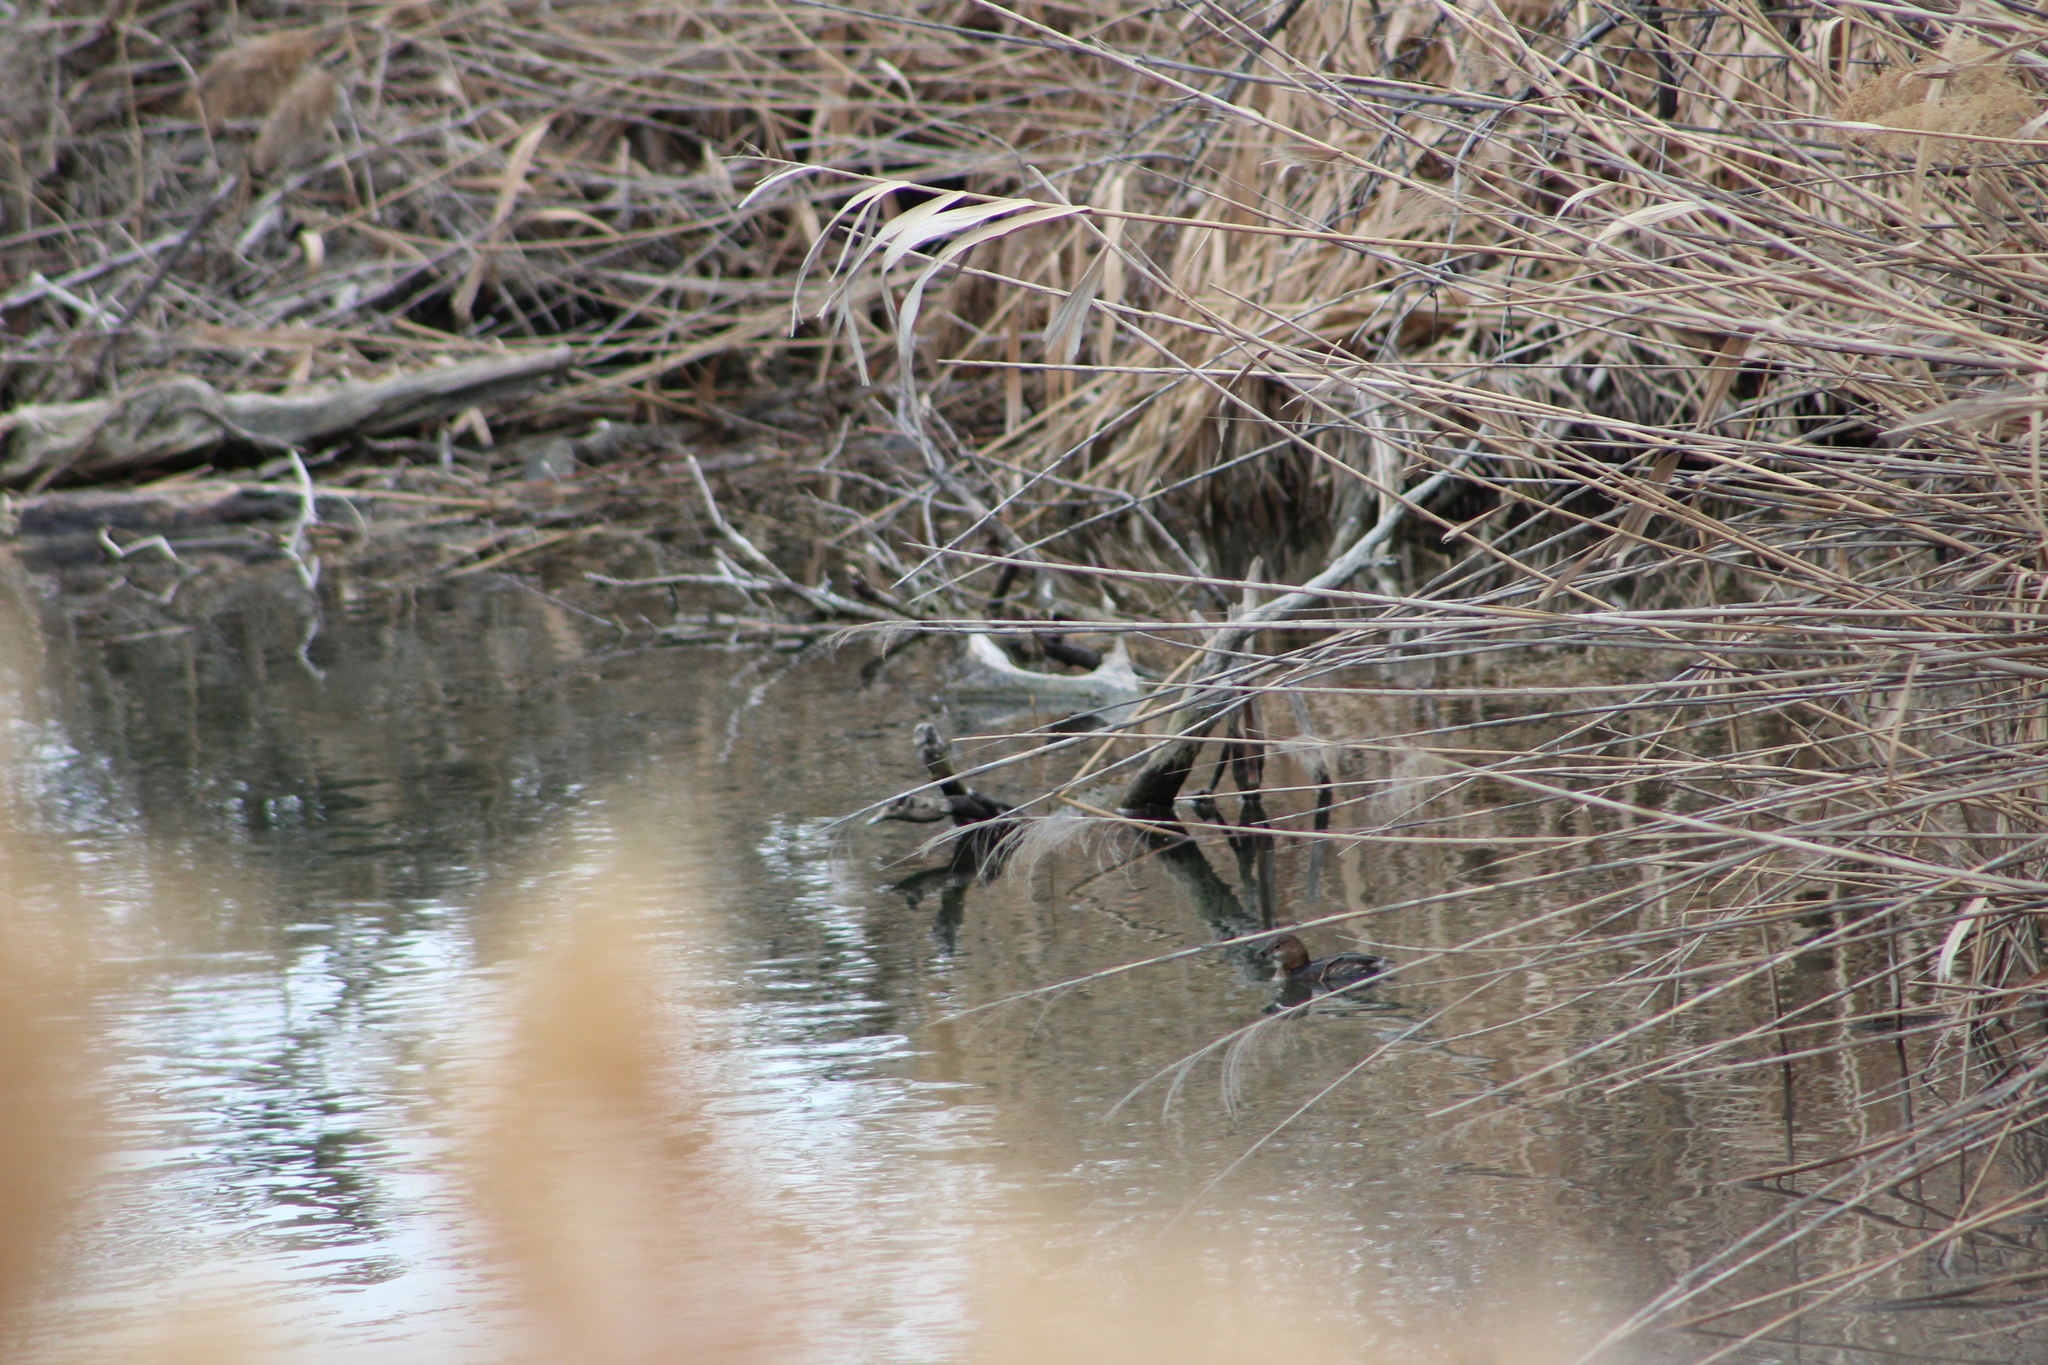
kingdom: Animalia
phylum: Chordata
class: Aves
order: Podicipediformes
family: Podicipedidae
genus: Podilymbus
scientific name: Podilymbus podiceps
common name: Pied-billed grebe
